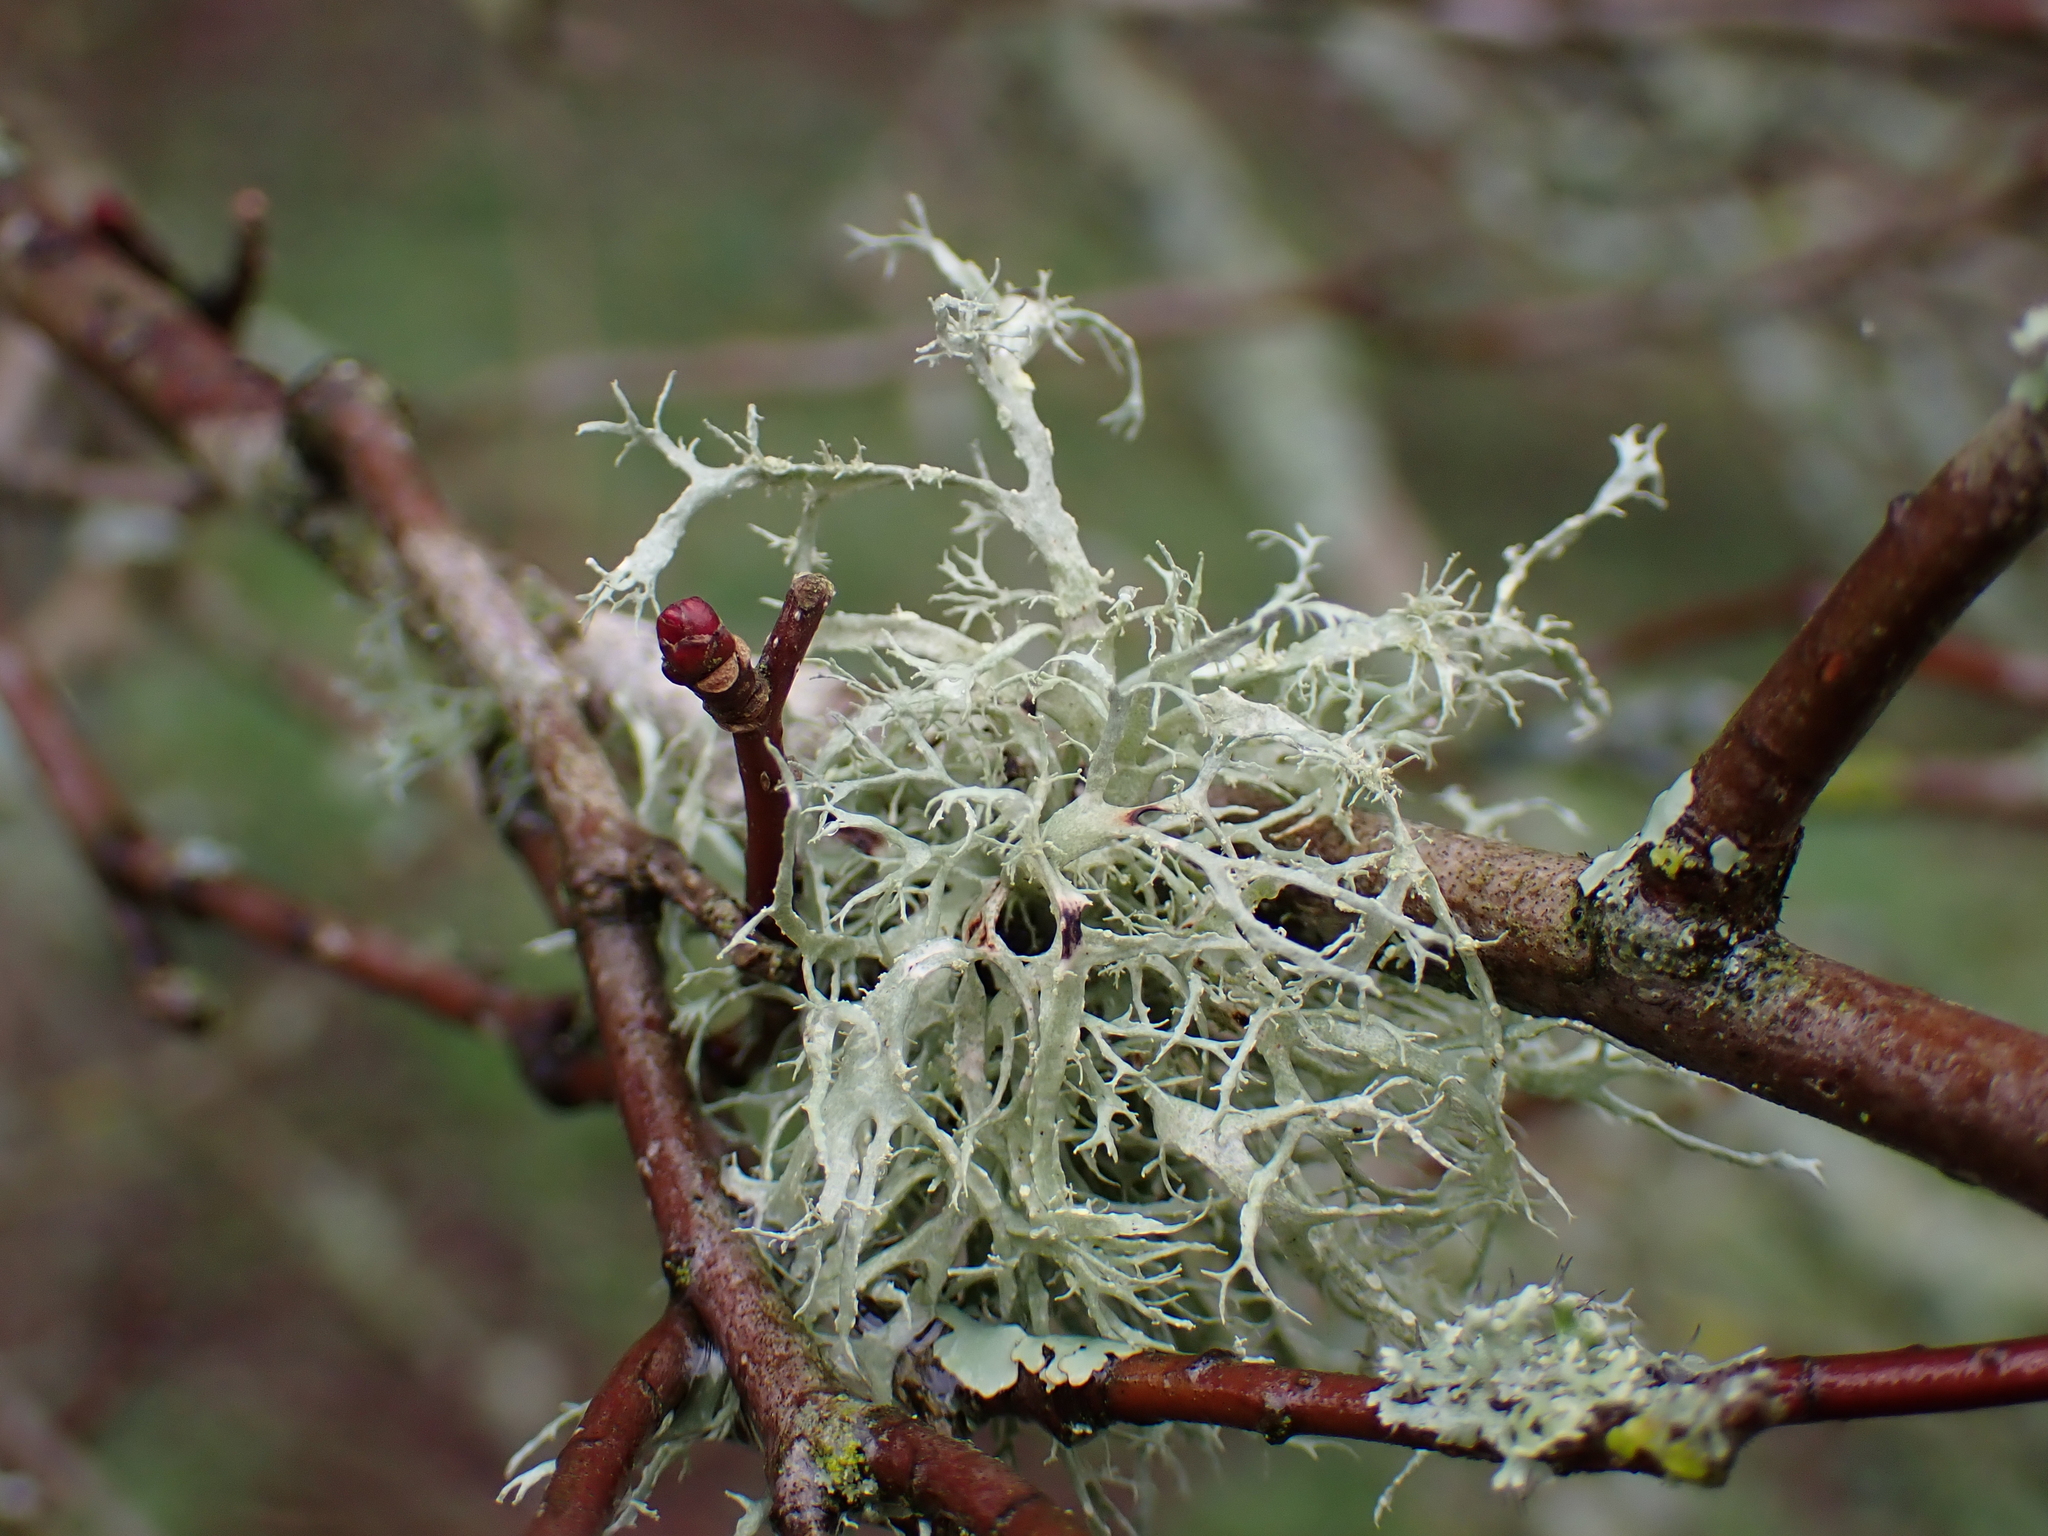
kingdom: Fungi
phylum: Ascomycota
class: Lecanoromycetes
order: Lecanorales
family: Ramalinaceae
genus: Ramalina
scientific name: Ramalina farinacea
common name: Farinose cartilage lichen
